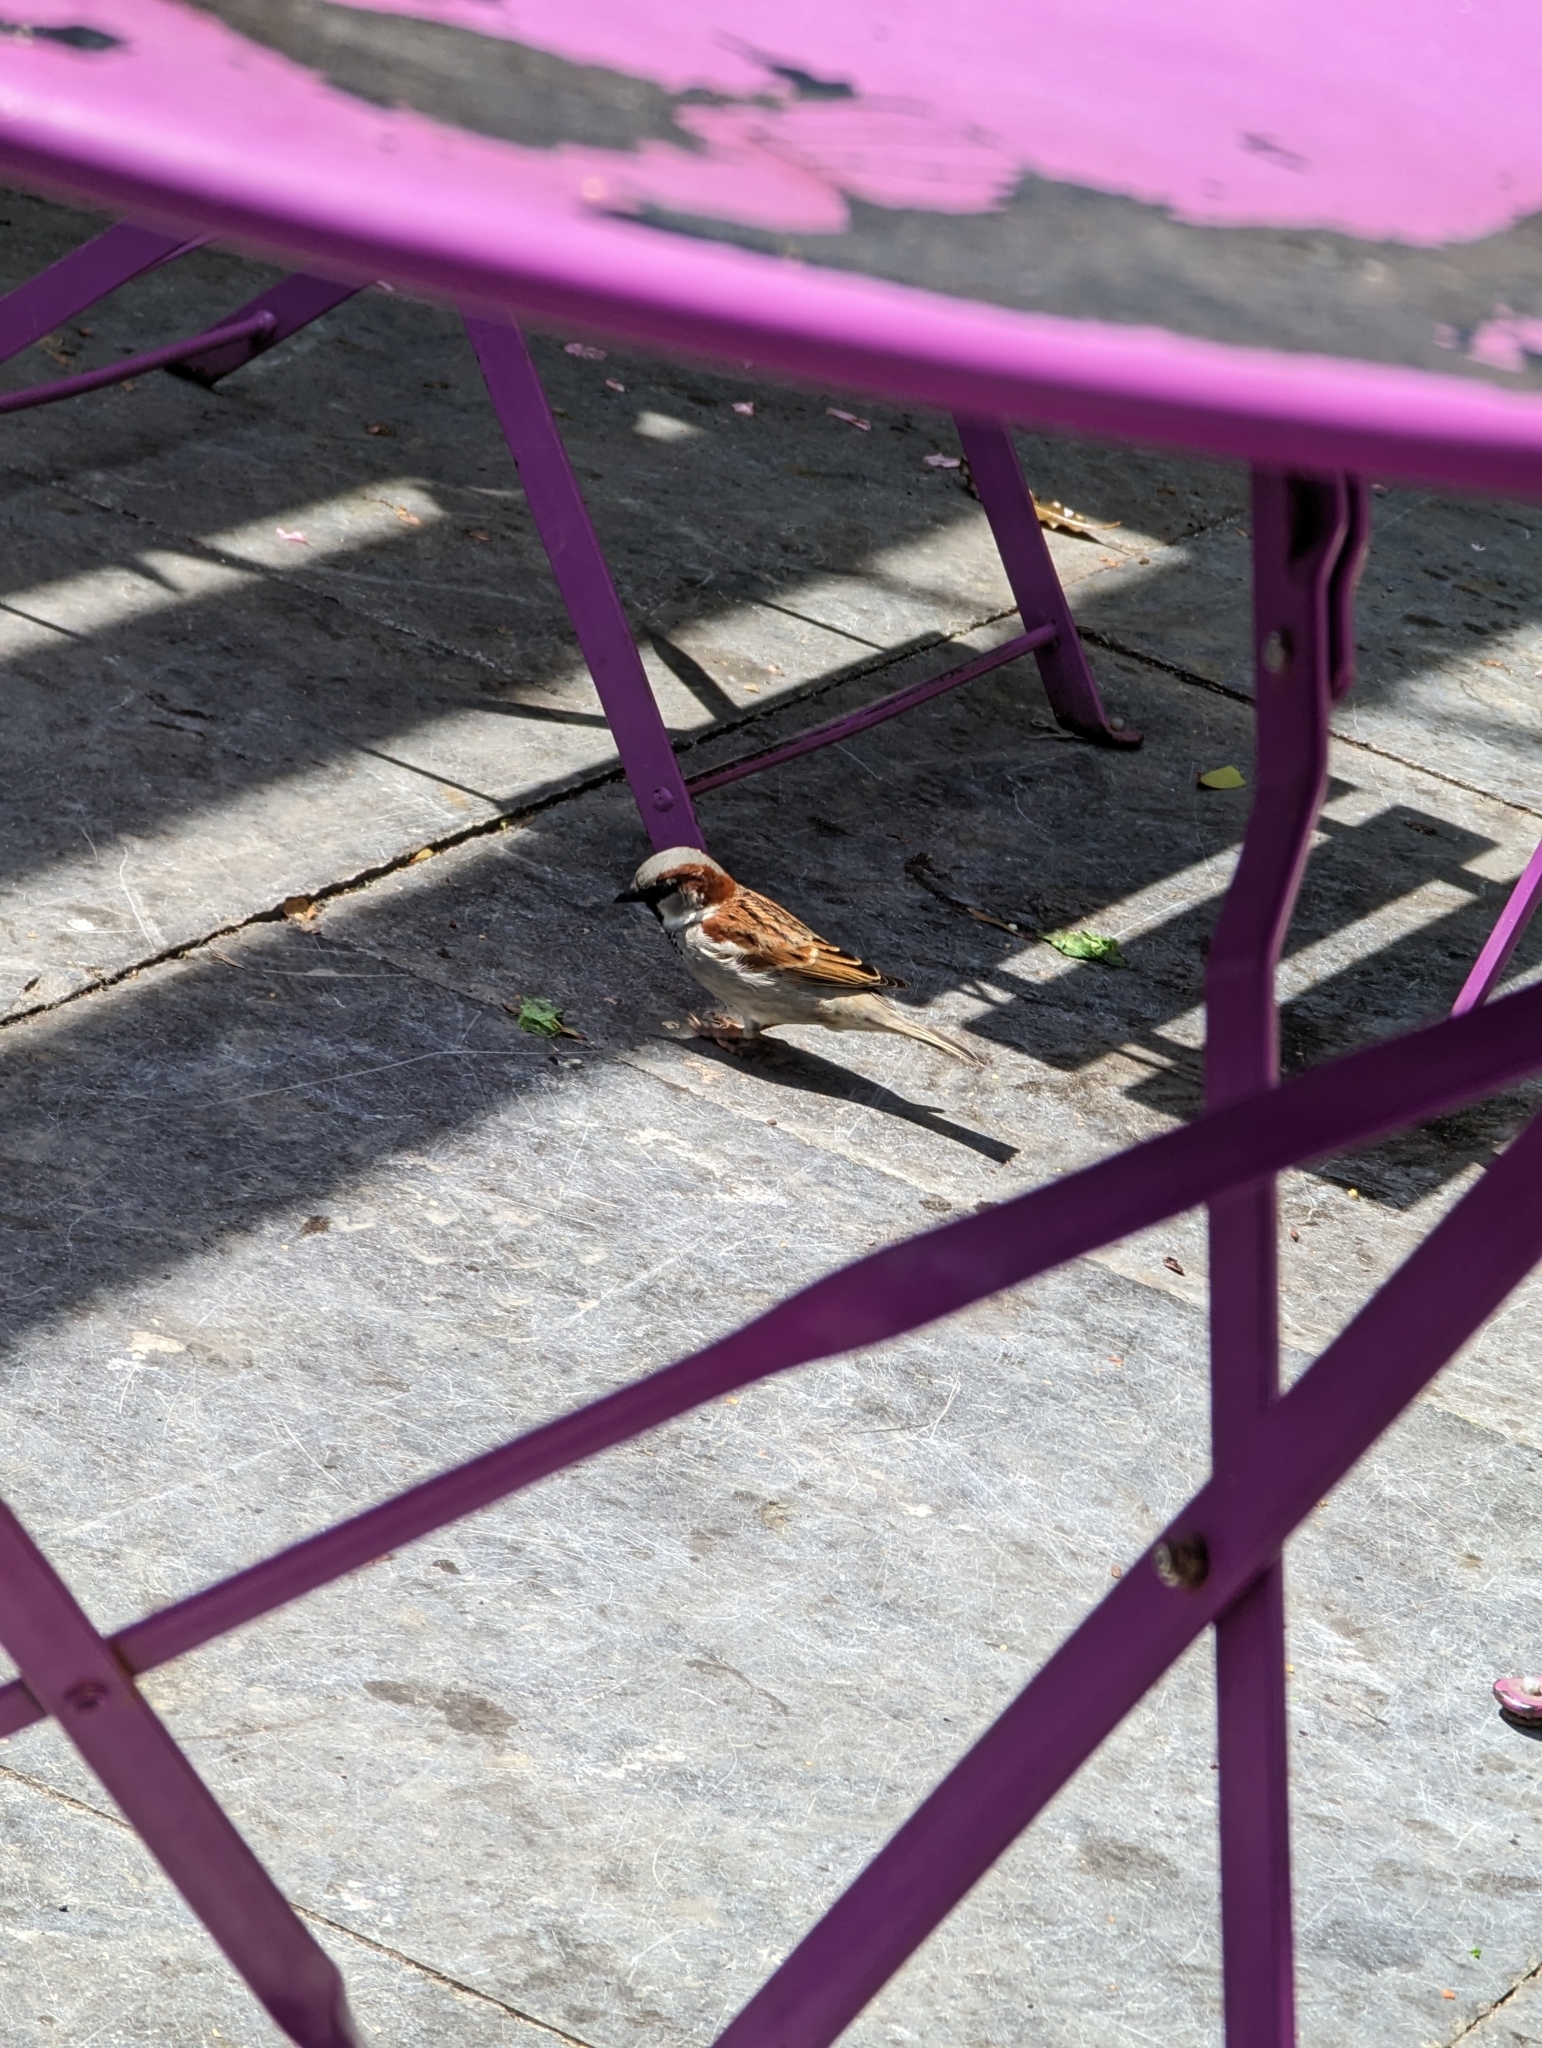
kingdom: Animalia
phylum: Chordata
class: Aves
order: Passeriformes
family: Passeridae
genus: Passer
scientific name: Passer domesticus
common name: House sparrow
